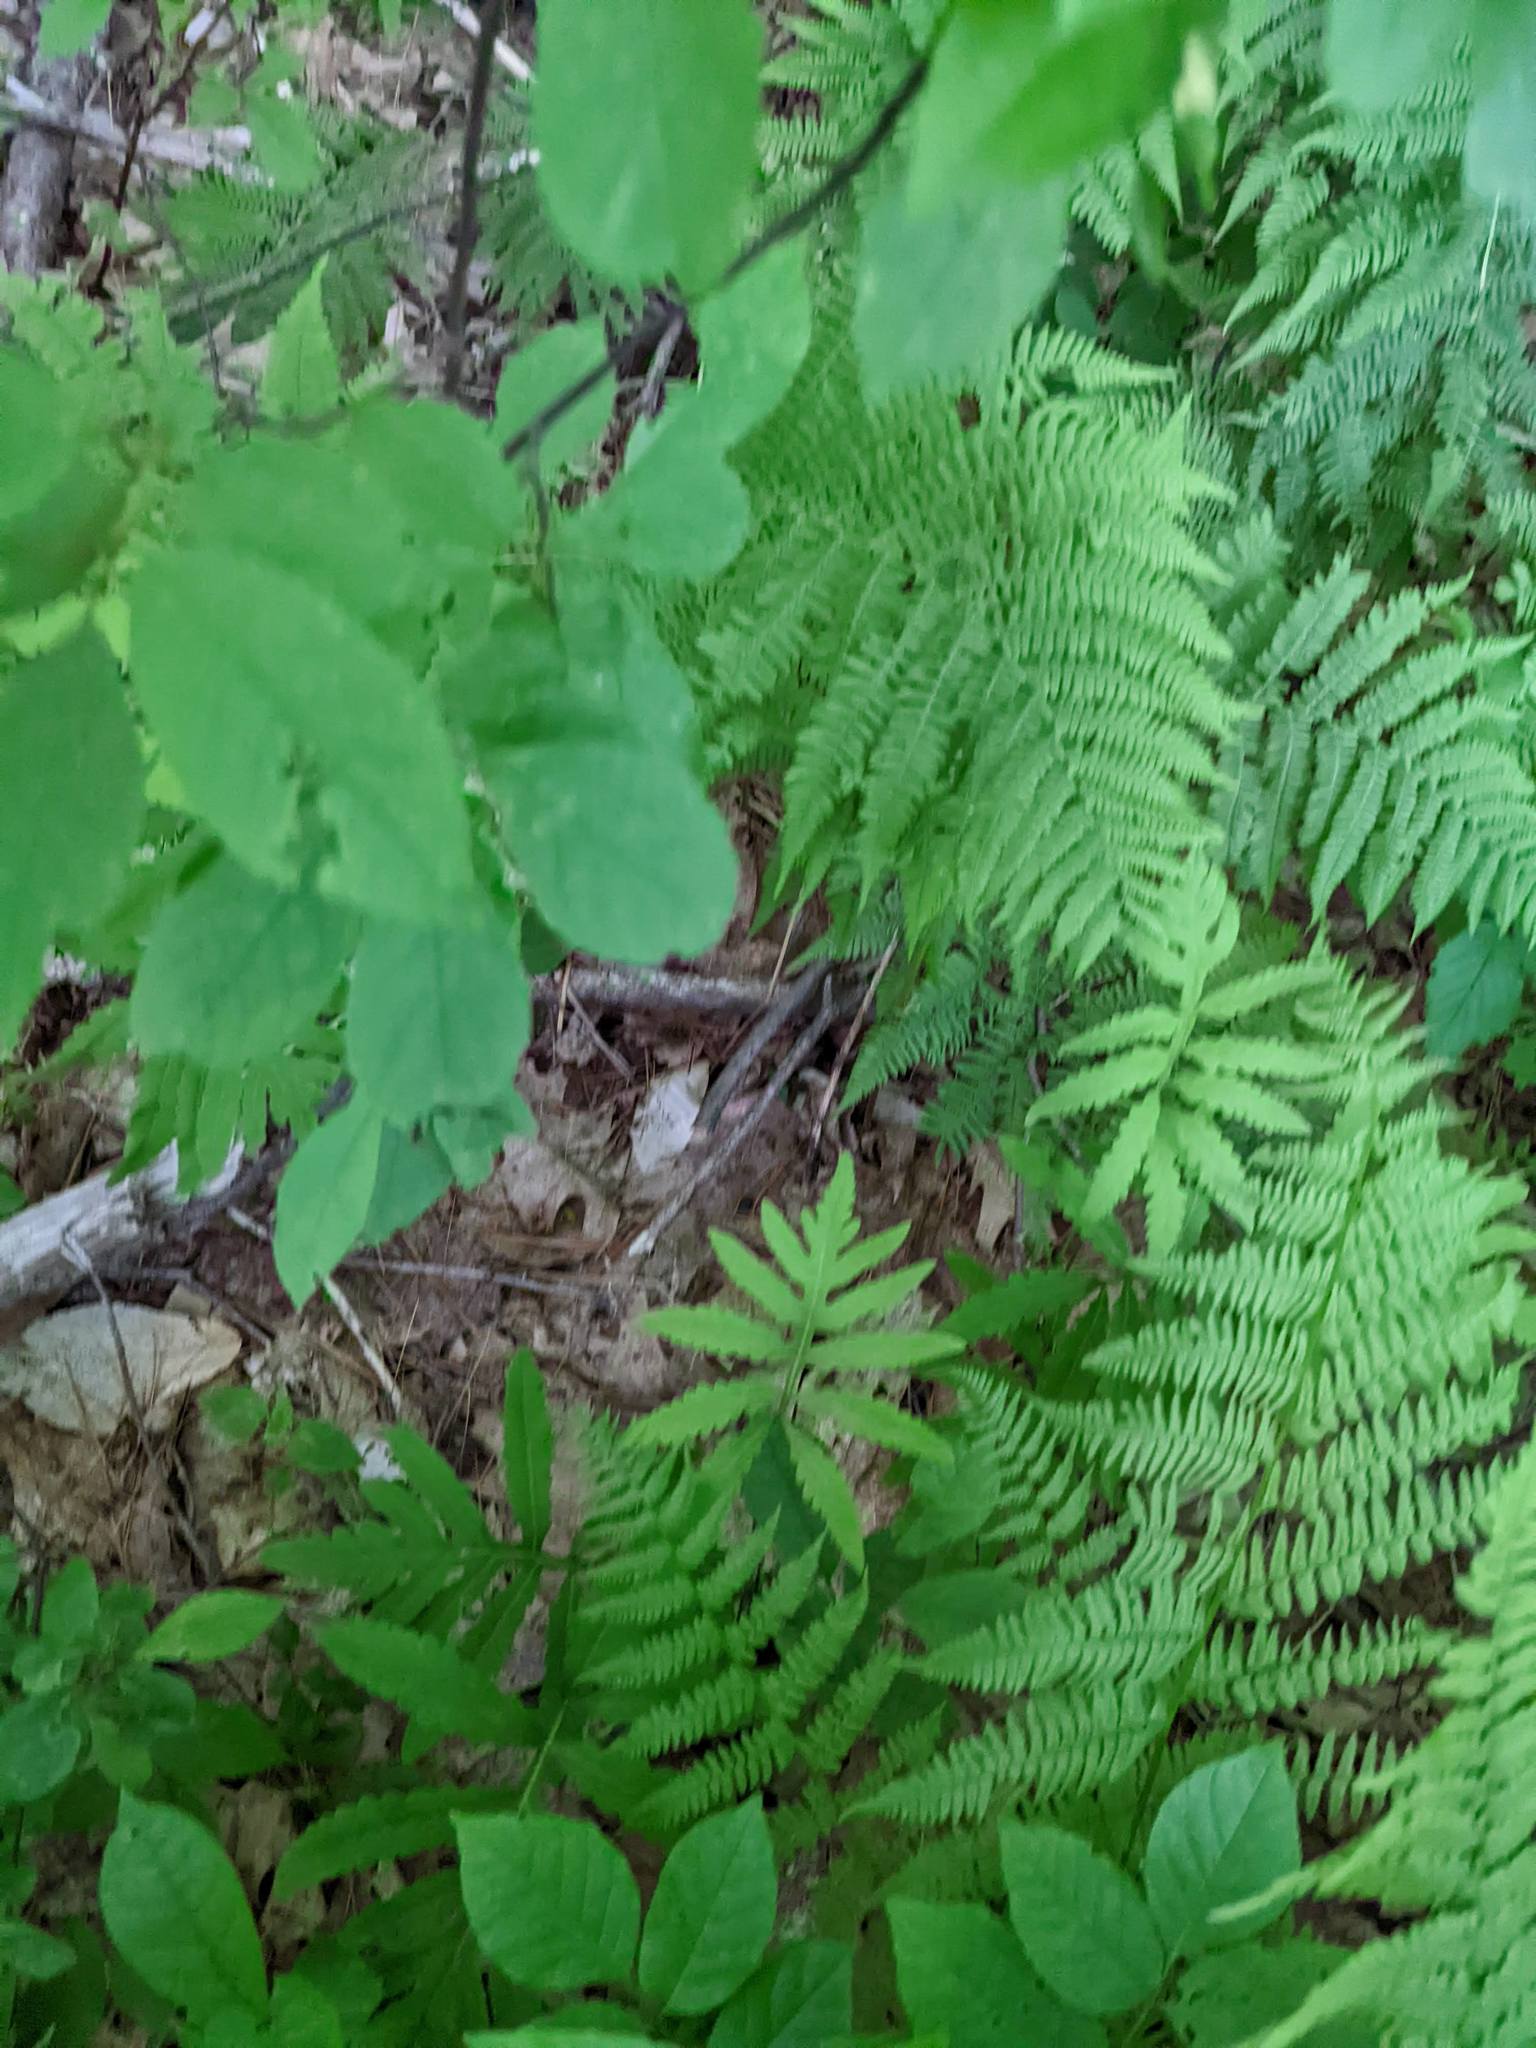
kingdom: Plantae
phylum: Tracheophyta
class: Polypodiopsida
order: Polypodiales
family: Onocleaceae
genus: Onoclea
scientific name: Onoclea sensibilis
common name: Sensitive fern
